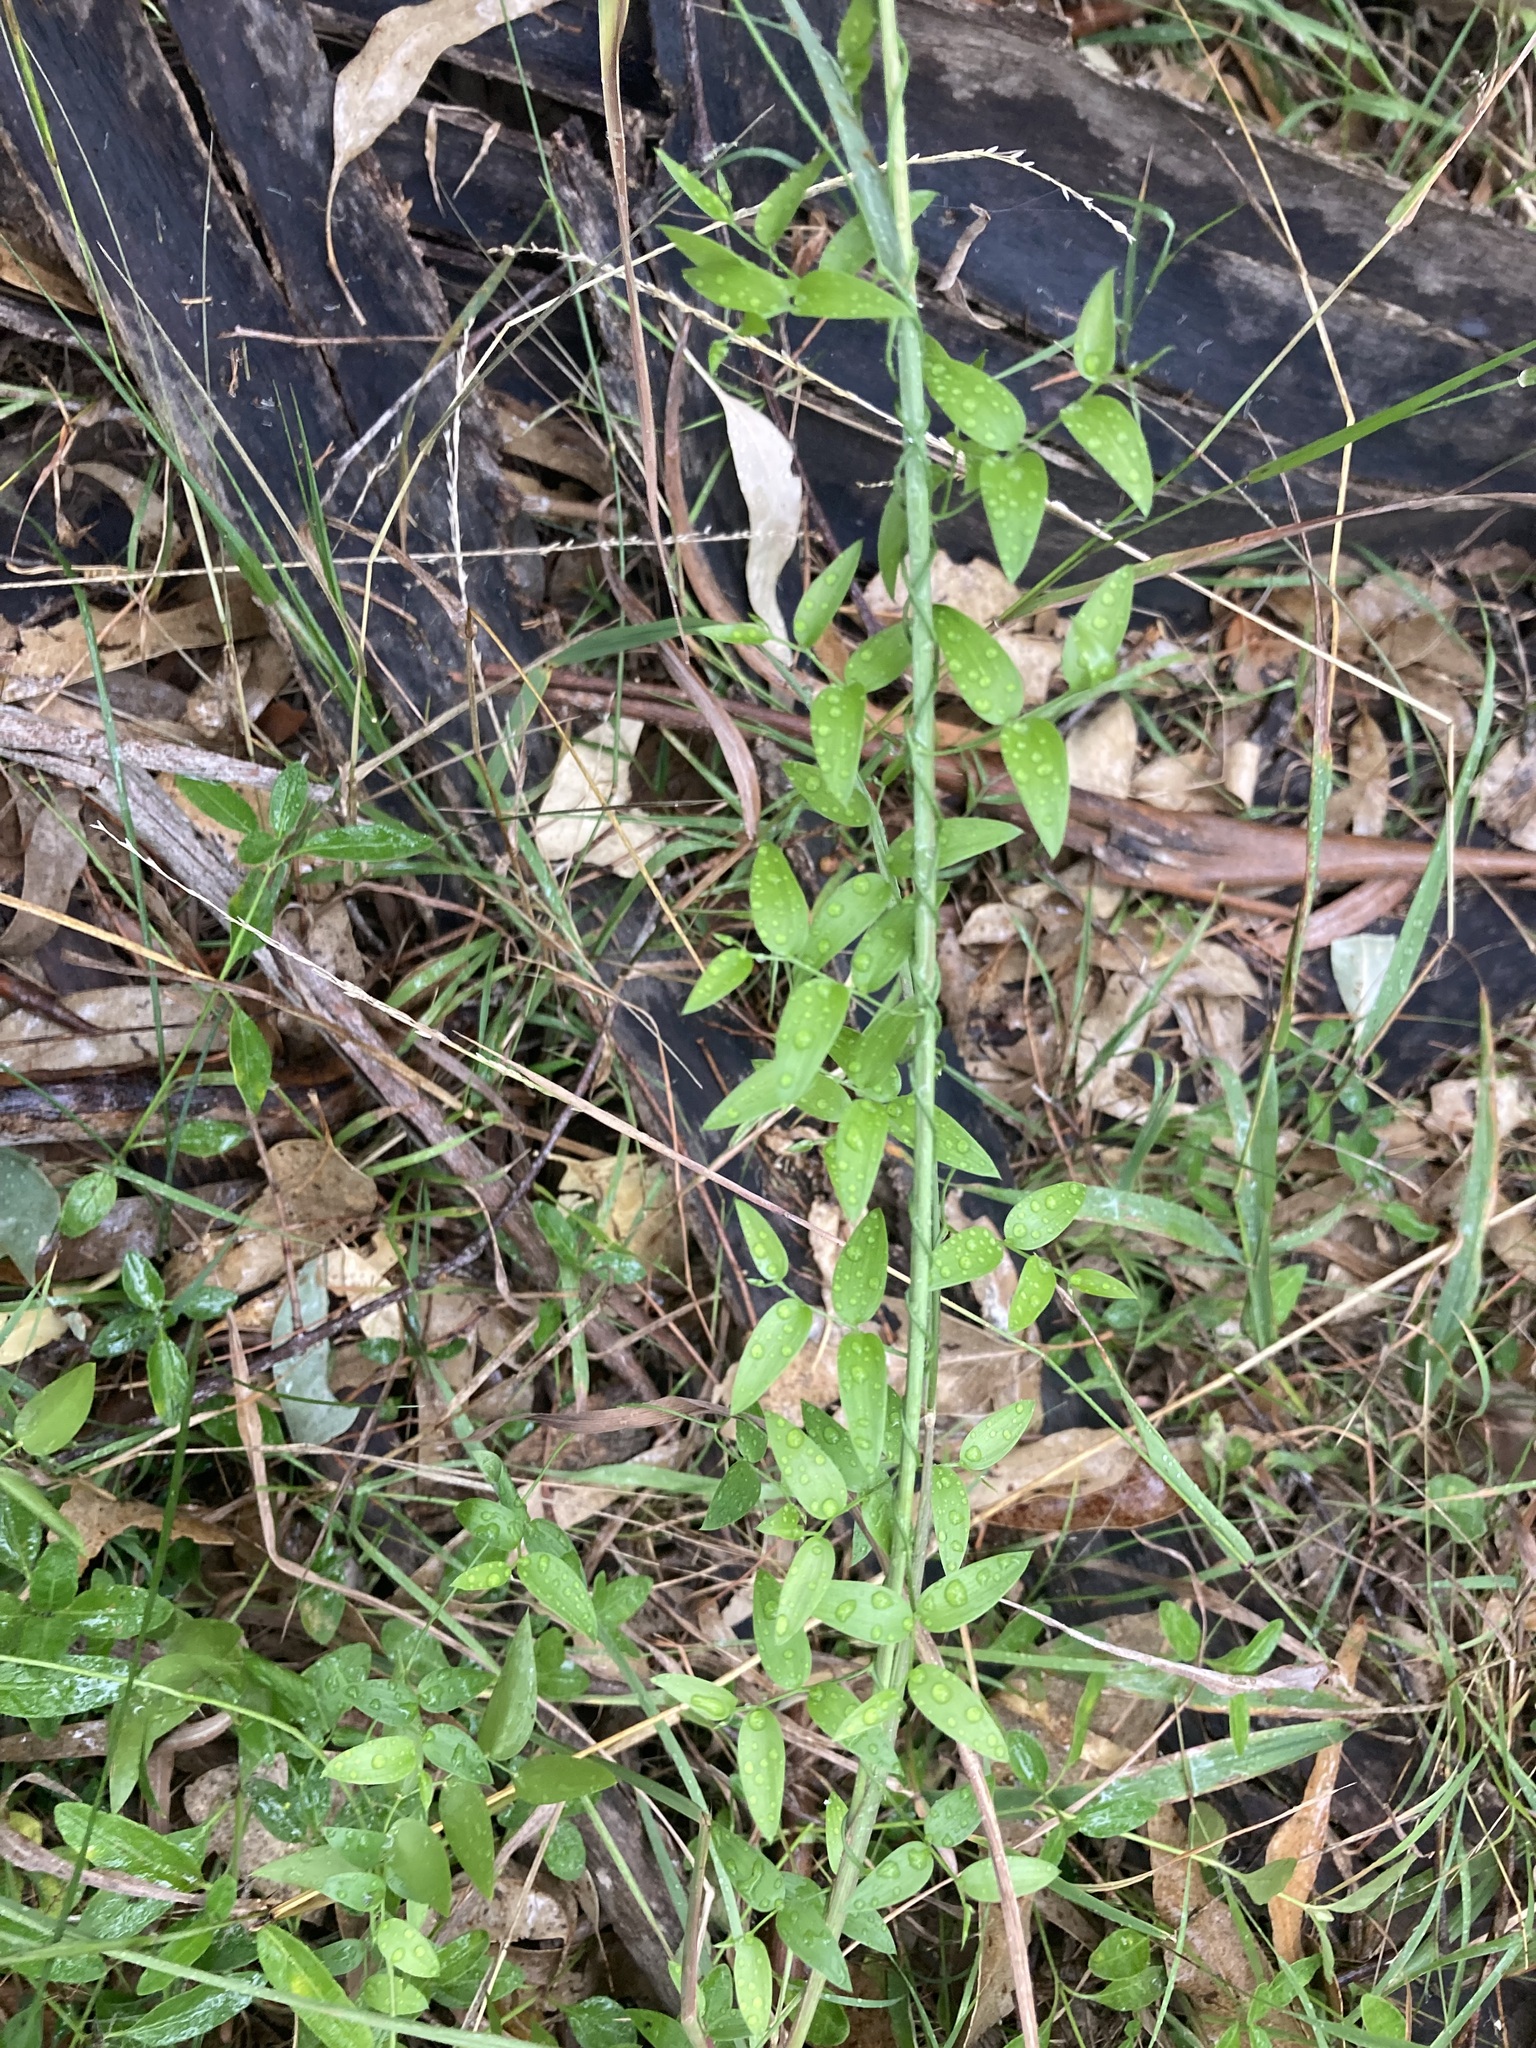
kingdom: Plantae
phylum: Tracheophyta
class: Liliopsida
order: Asparagales
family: Asparagaceae
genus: Asparagus
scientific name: Asparagus asparagoides
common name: African asparagus fern
